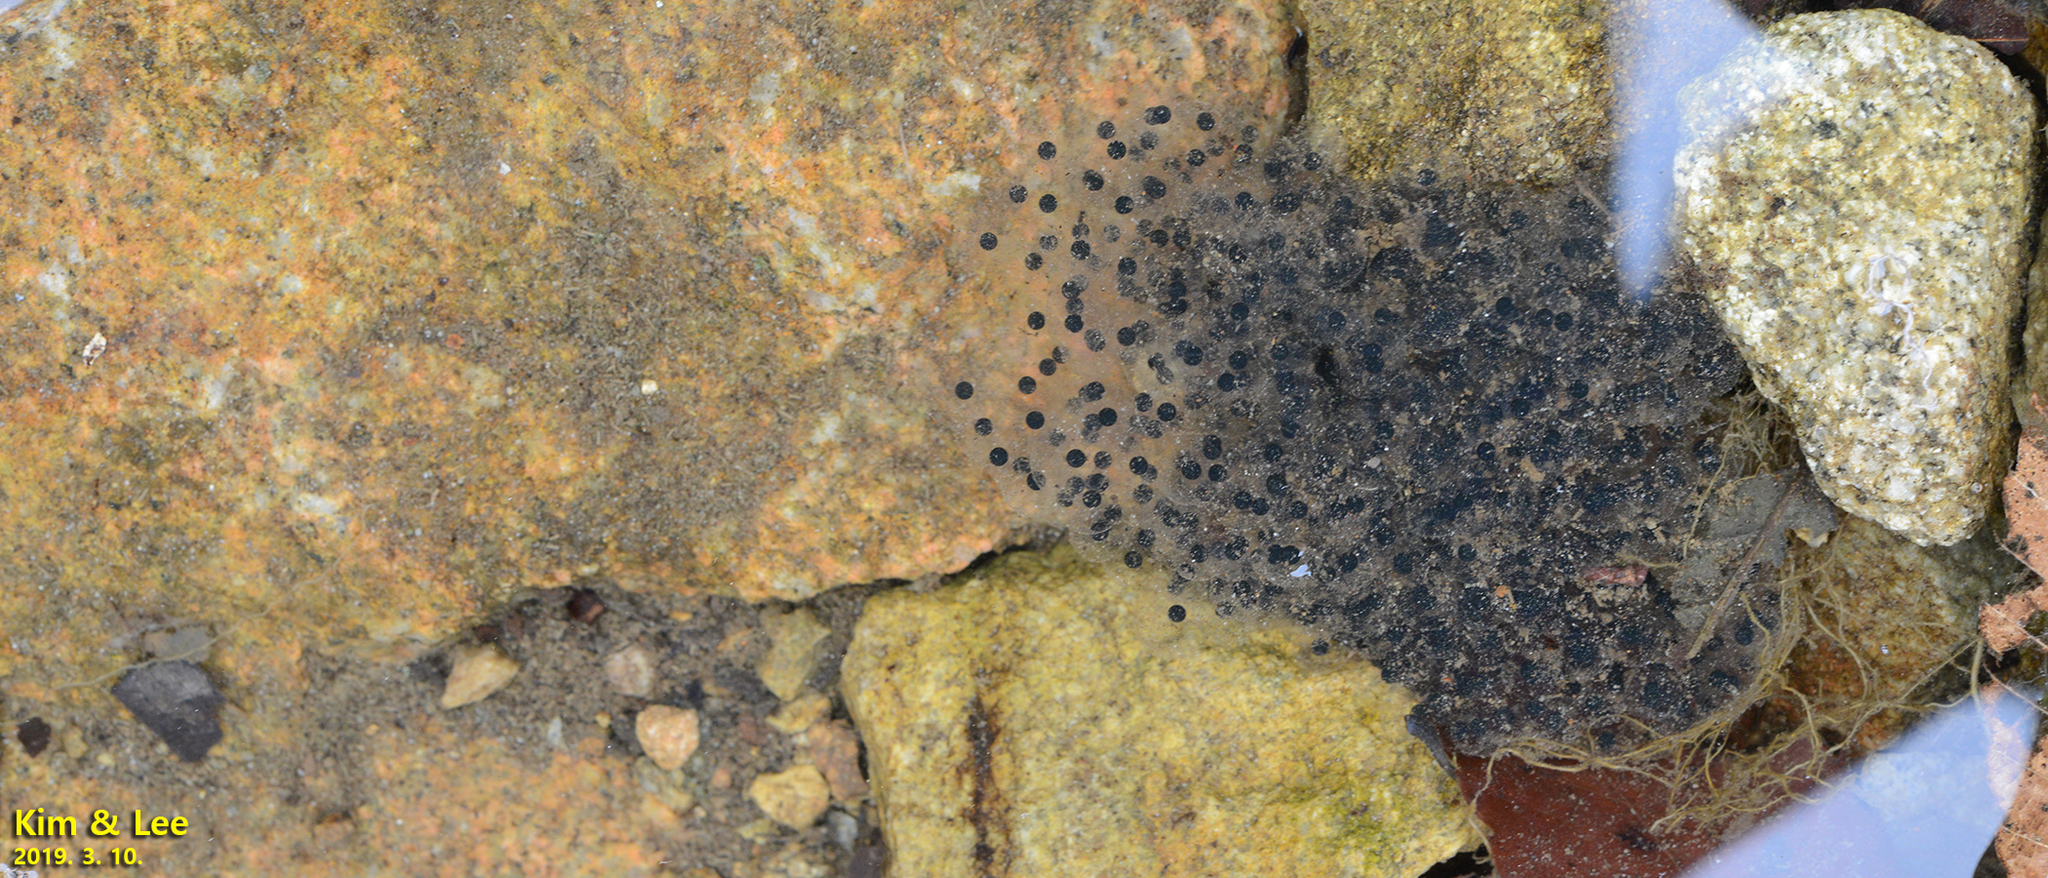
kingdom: Animalia
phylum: Chordata
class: Amphibia
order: Anura
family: Ranidae
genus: Rana
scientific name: Rana huanrenensis
